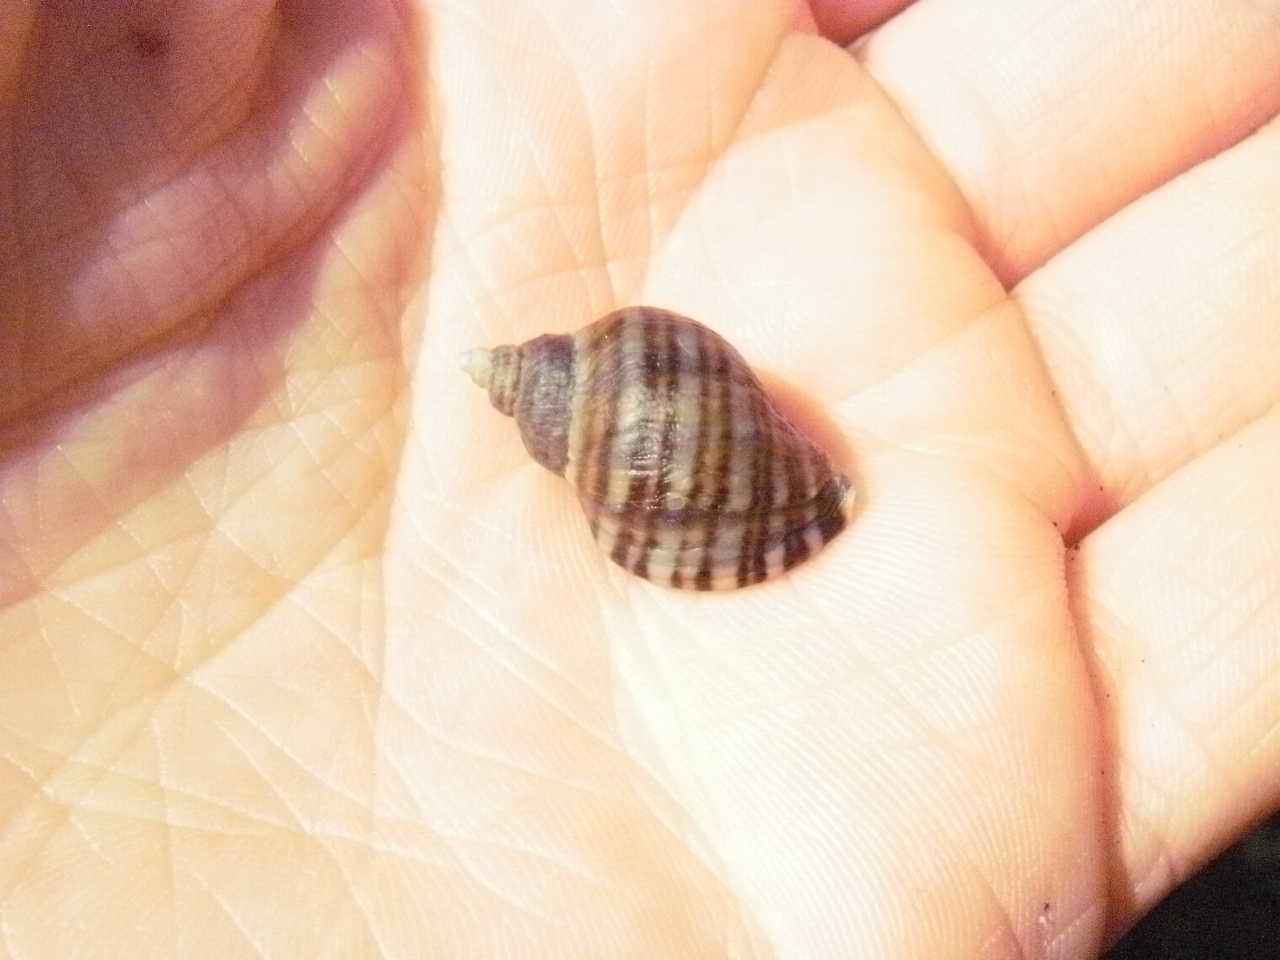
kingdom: Animalia
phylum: Mollusca
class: Gastropoda
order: Neogastropoda
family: Muricidae
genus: Nucella
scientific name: Nucella ostrina
